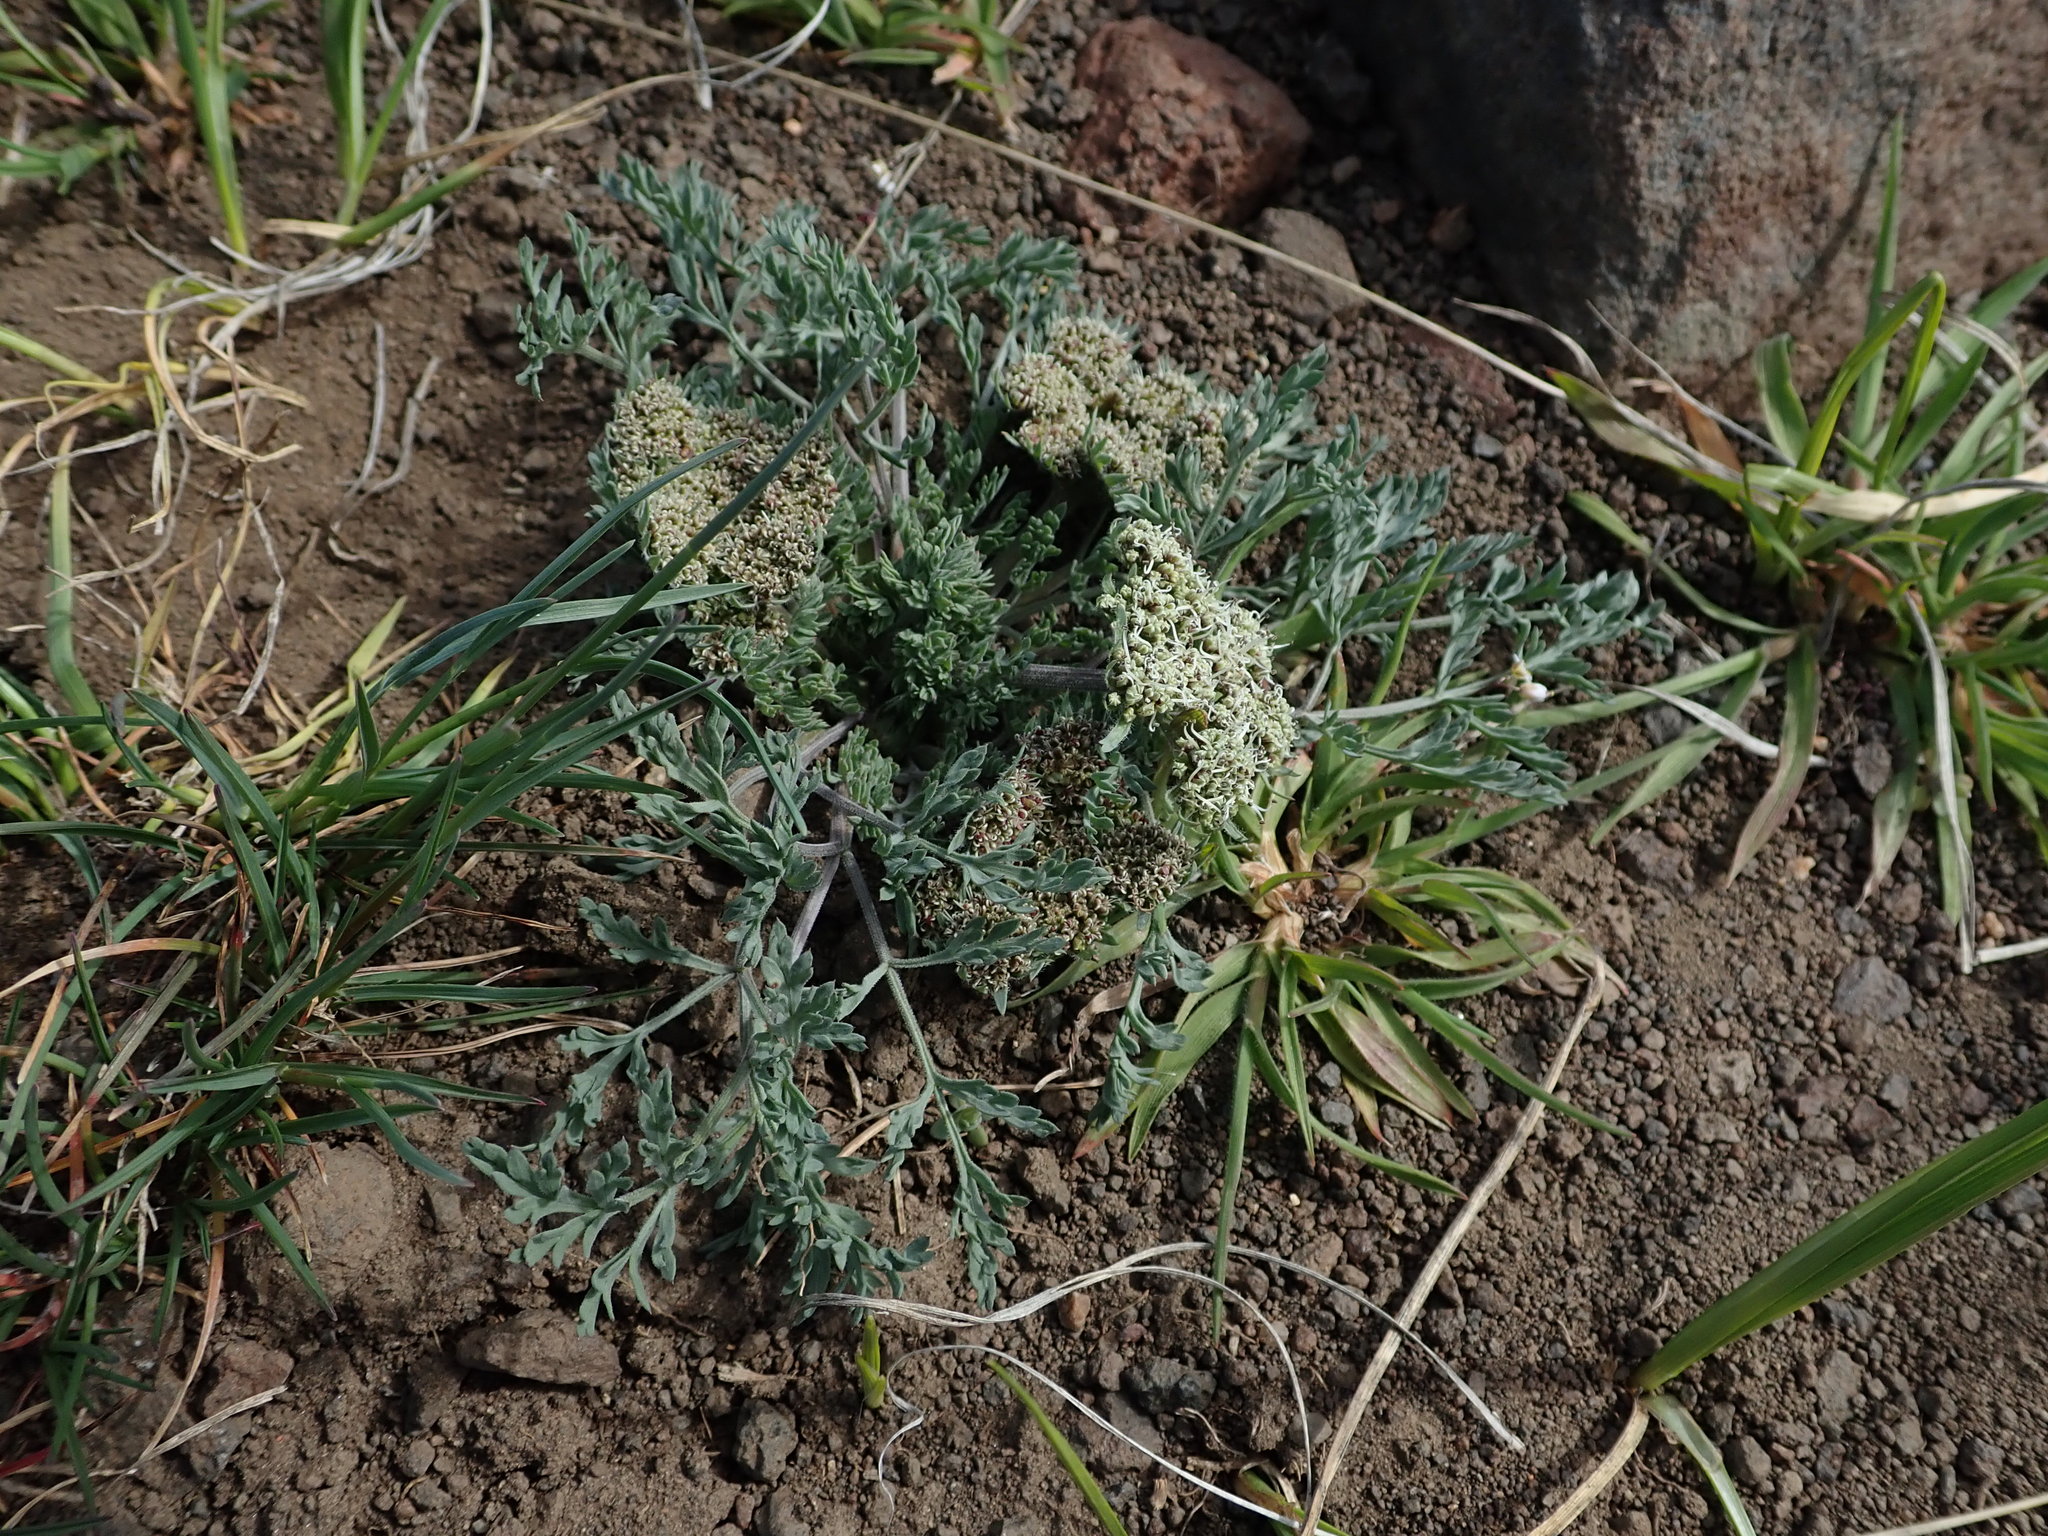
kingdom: Plantae
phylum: Tracheophyta
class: Magnoliopsida
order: Apiales
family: Apiaceae
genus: Lomatium
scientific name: Lomatium macrocarpum
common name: Big-seed biscuitroot
